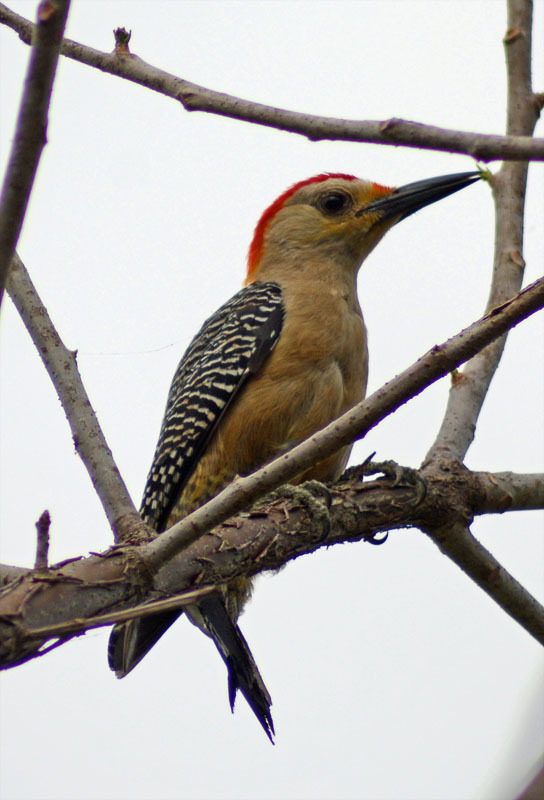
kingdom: Animalia
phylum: Chordata
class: Aves
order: Piciformes
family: Picidae
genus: Melanerpes
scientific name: Melanerpes aurifrons
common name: Golden-fronted woodpecker
